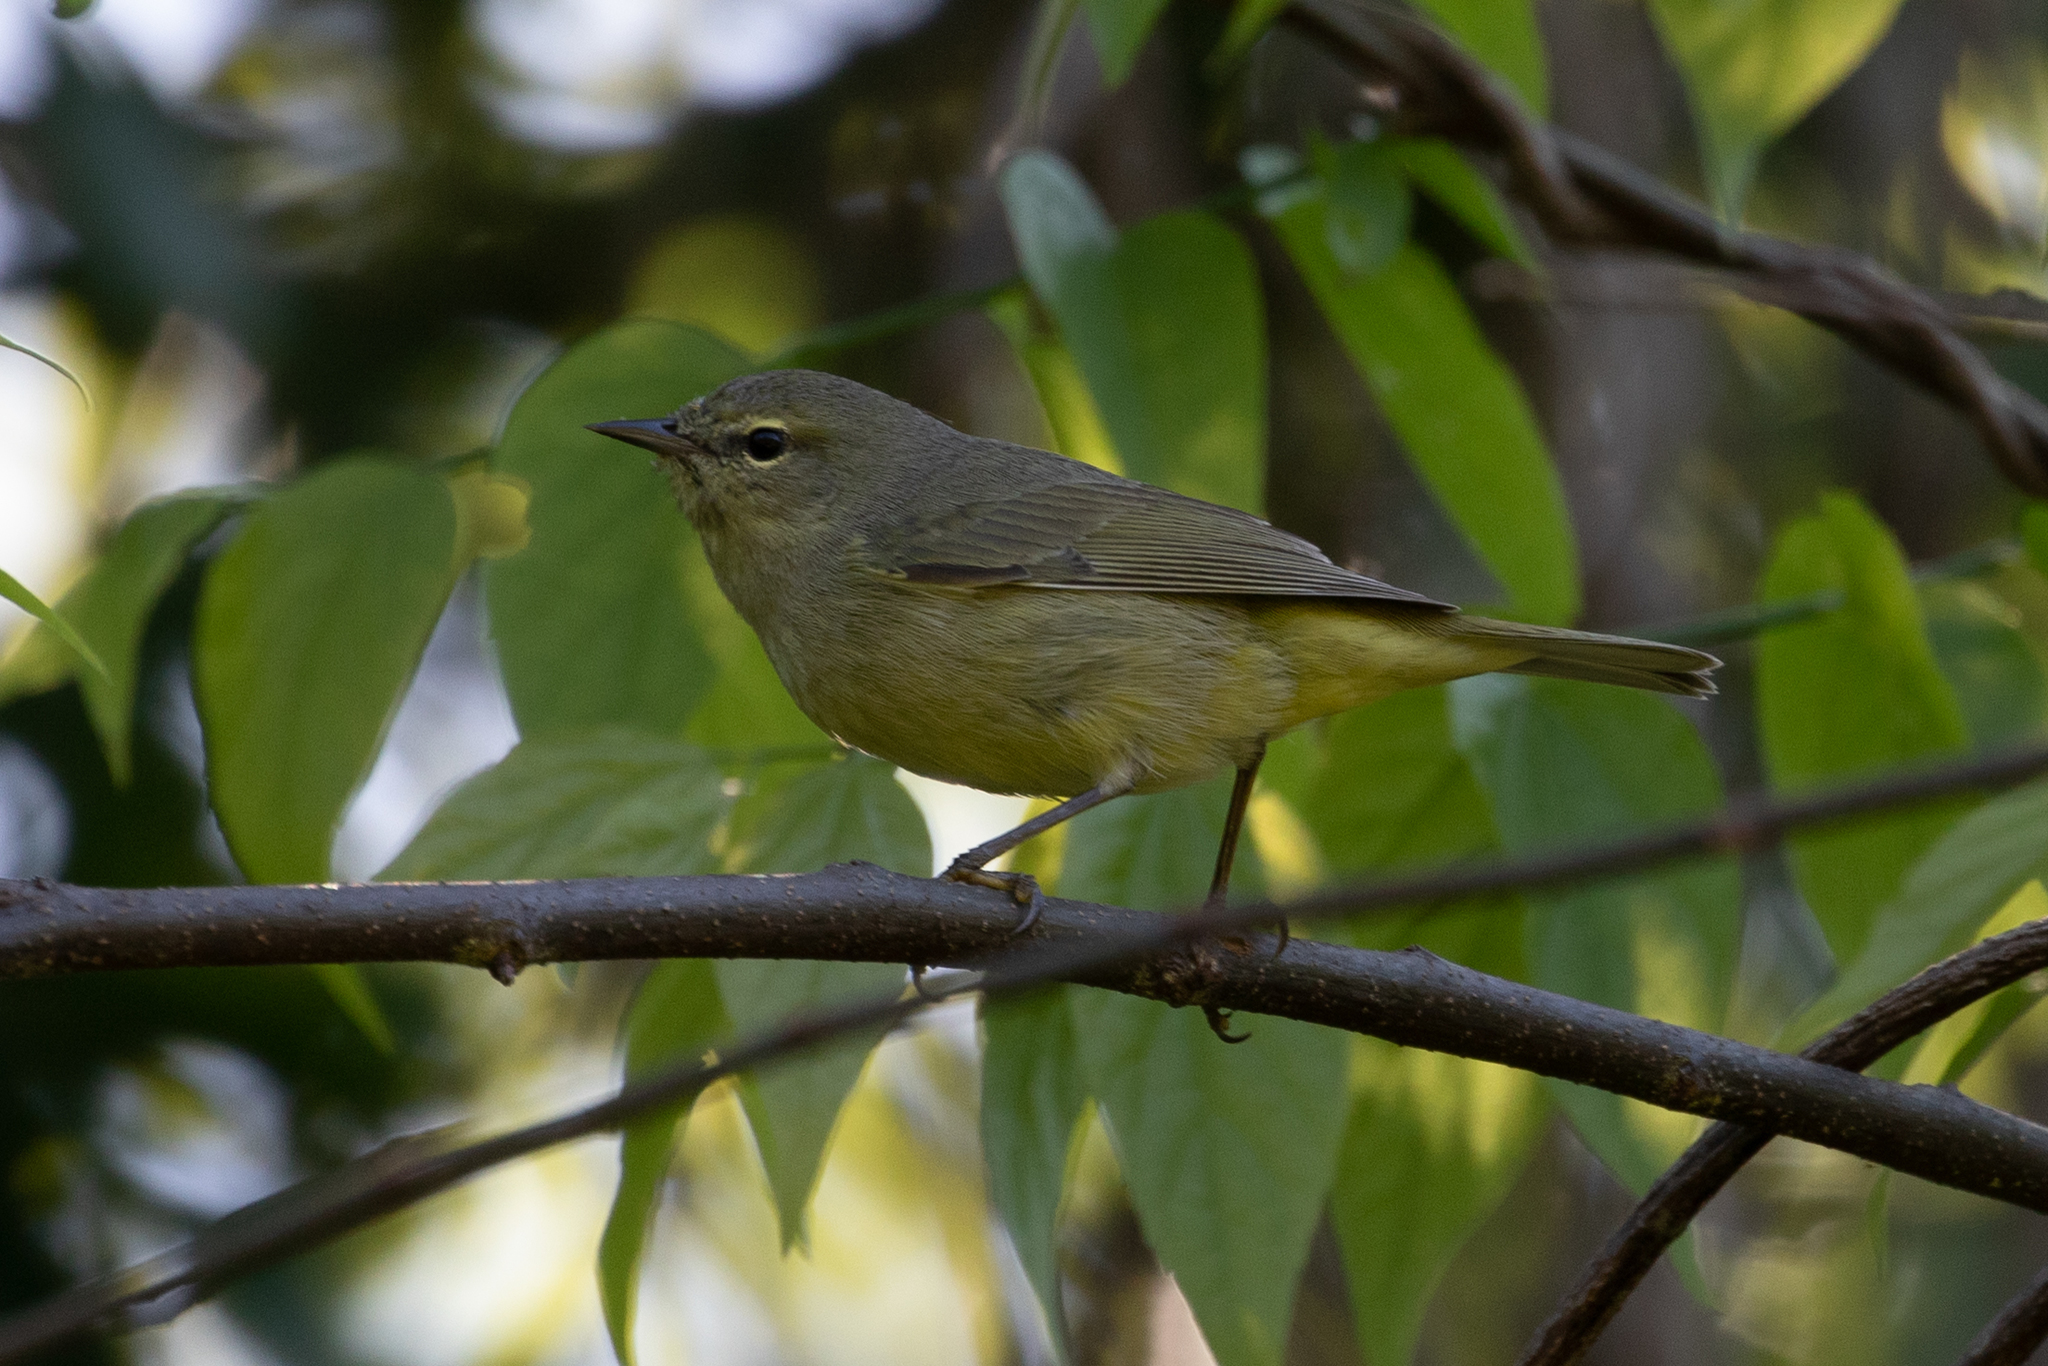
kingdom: Animalia
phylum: Chordata
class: Aves
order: Passeriformes
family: Parulidae
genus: Leiothlypis
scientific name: Leiothlypis celata
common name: Orange-crowned warbler
